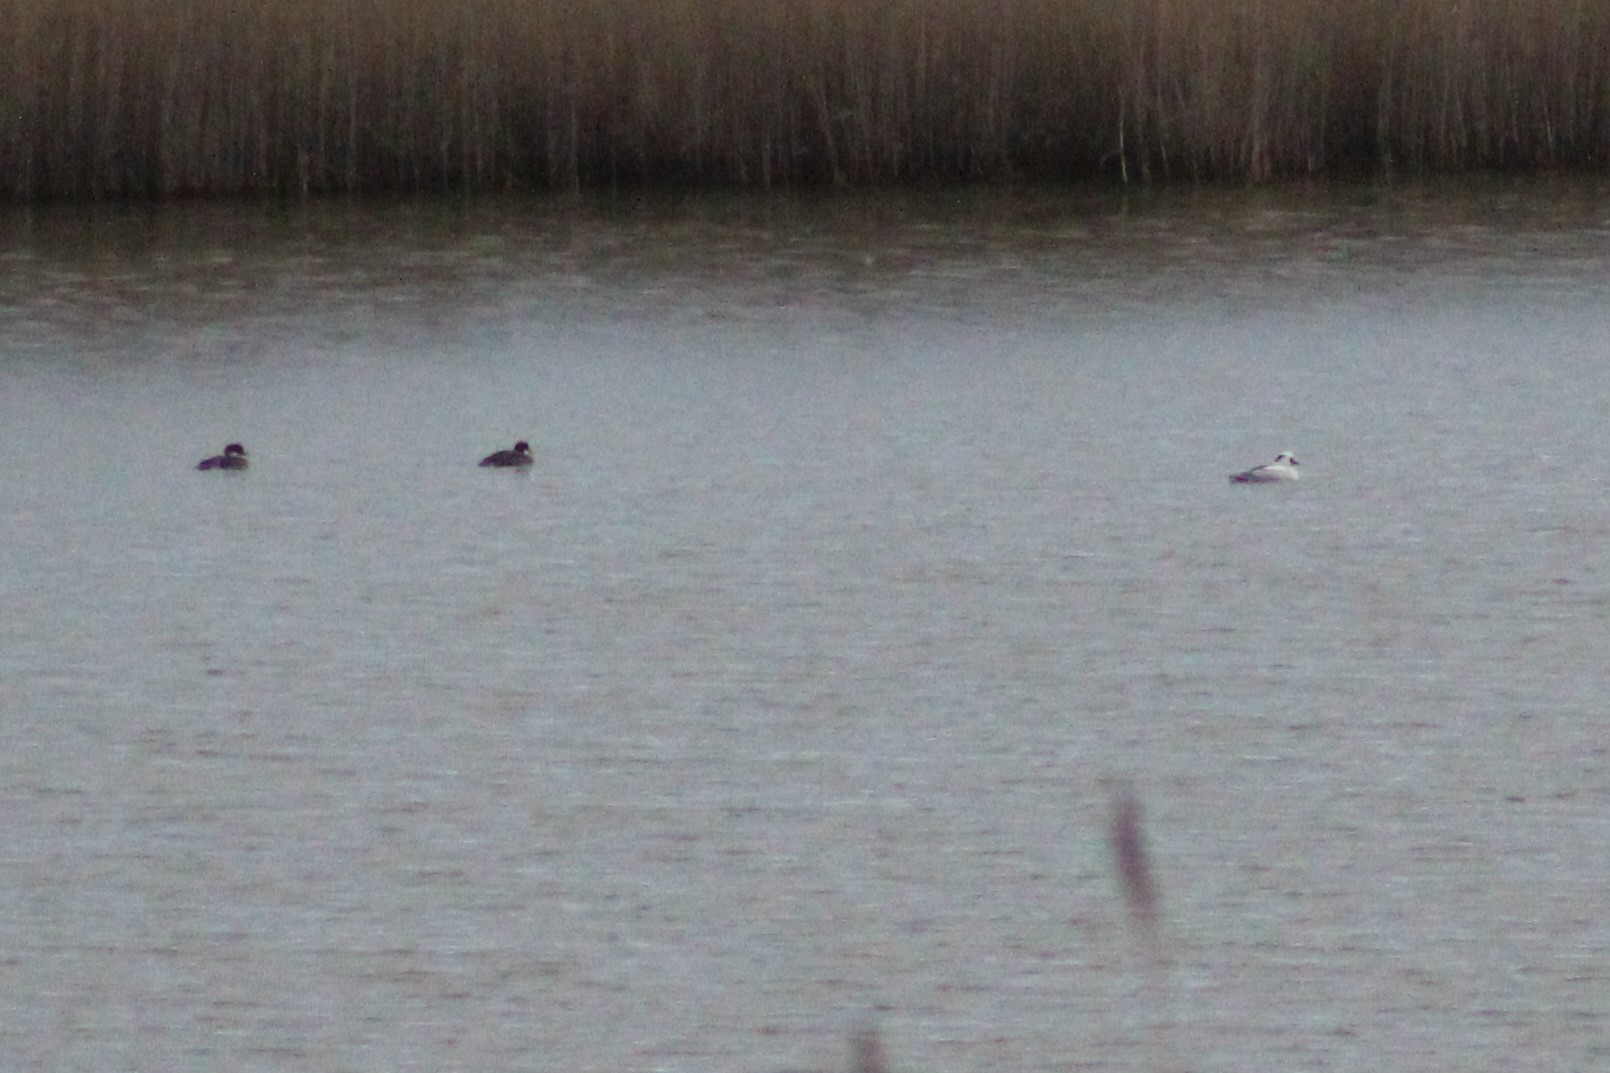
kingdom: Animalia
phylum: Chordata
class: Aves
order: Anseriformes
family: Anatidae
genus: Mergellus
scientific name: Mergellus albellus
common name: Smew
